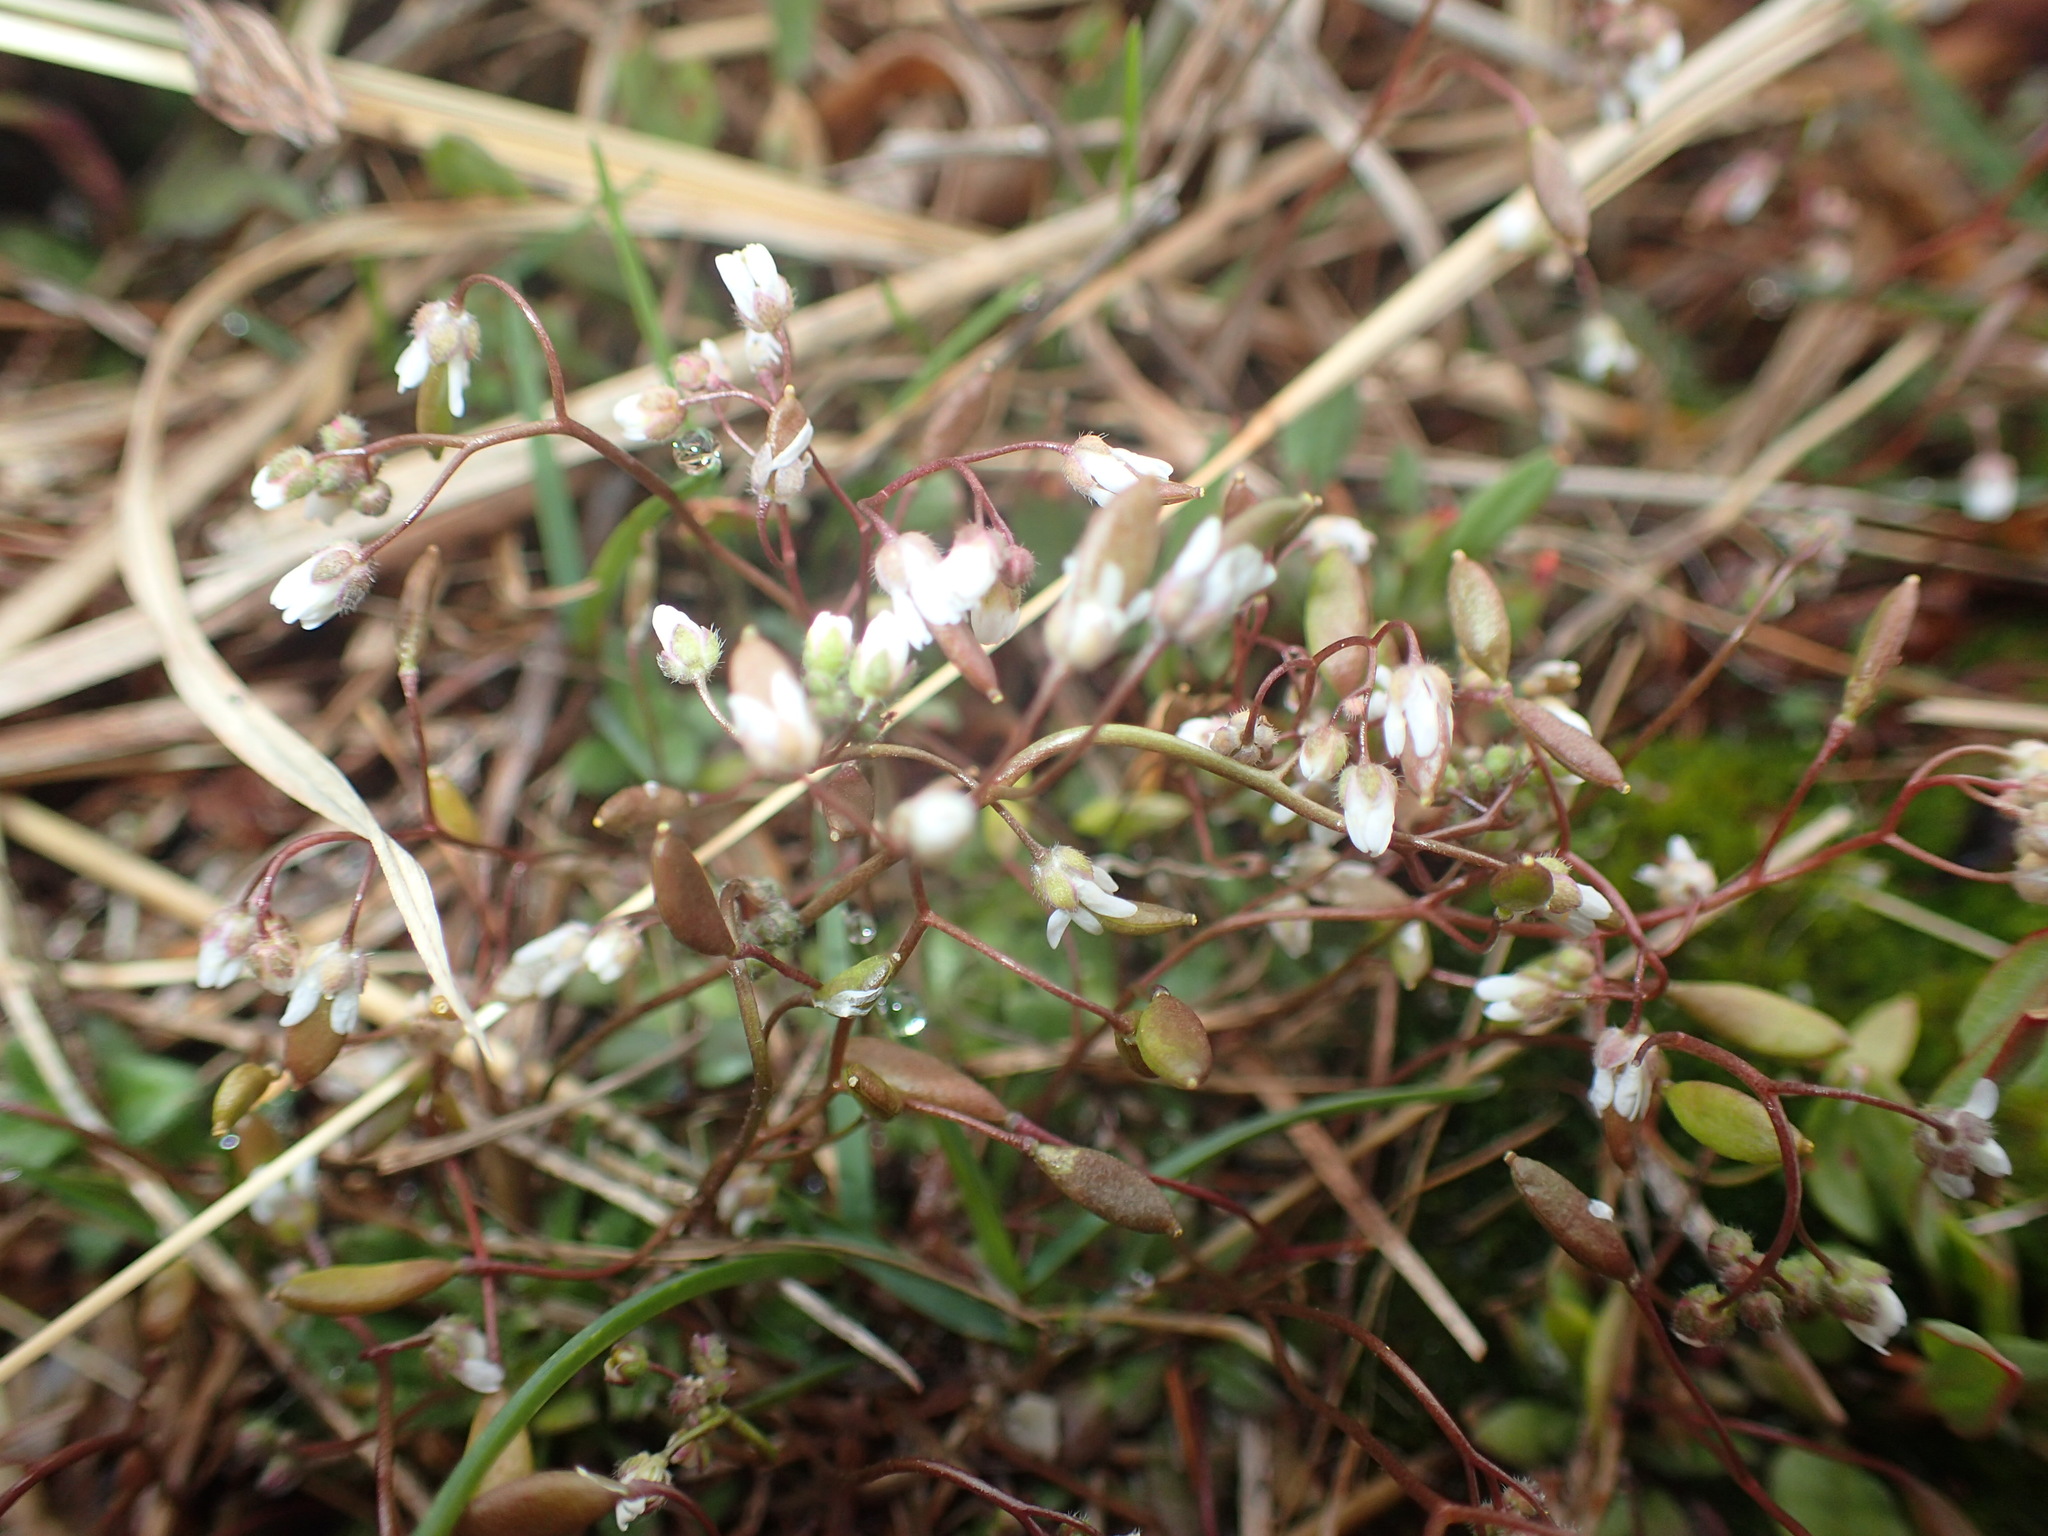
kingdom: Plantae
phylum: Tracheophyta
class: Magnoliopsida
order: Brassicales
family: Brassicaceae
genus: Draba
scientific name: Draba verna
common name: Spring draba
